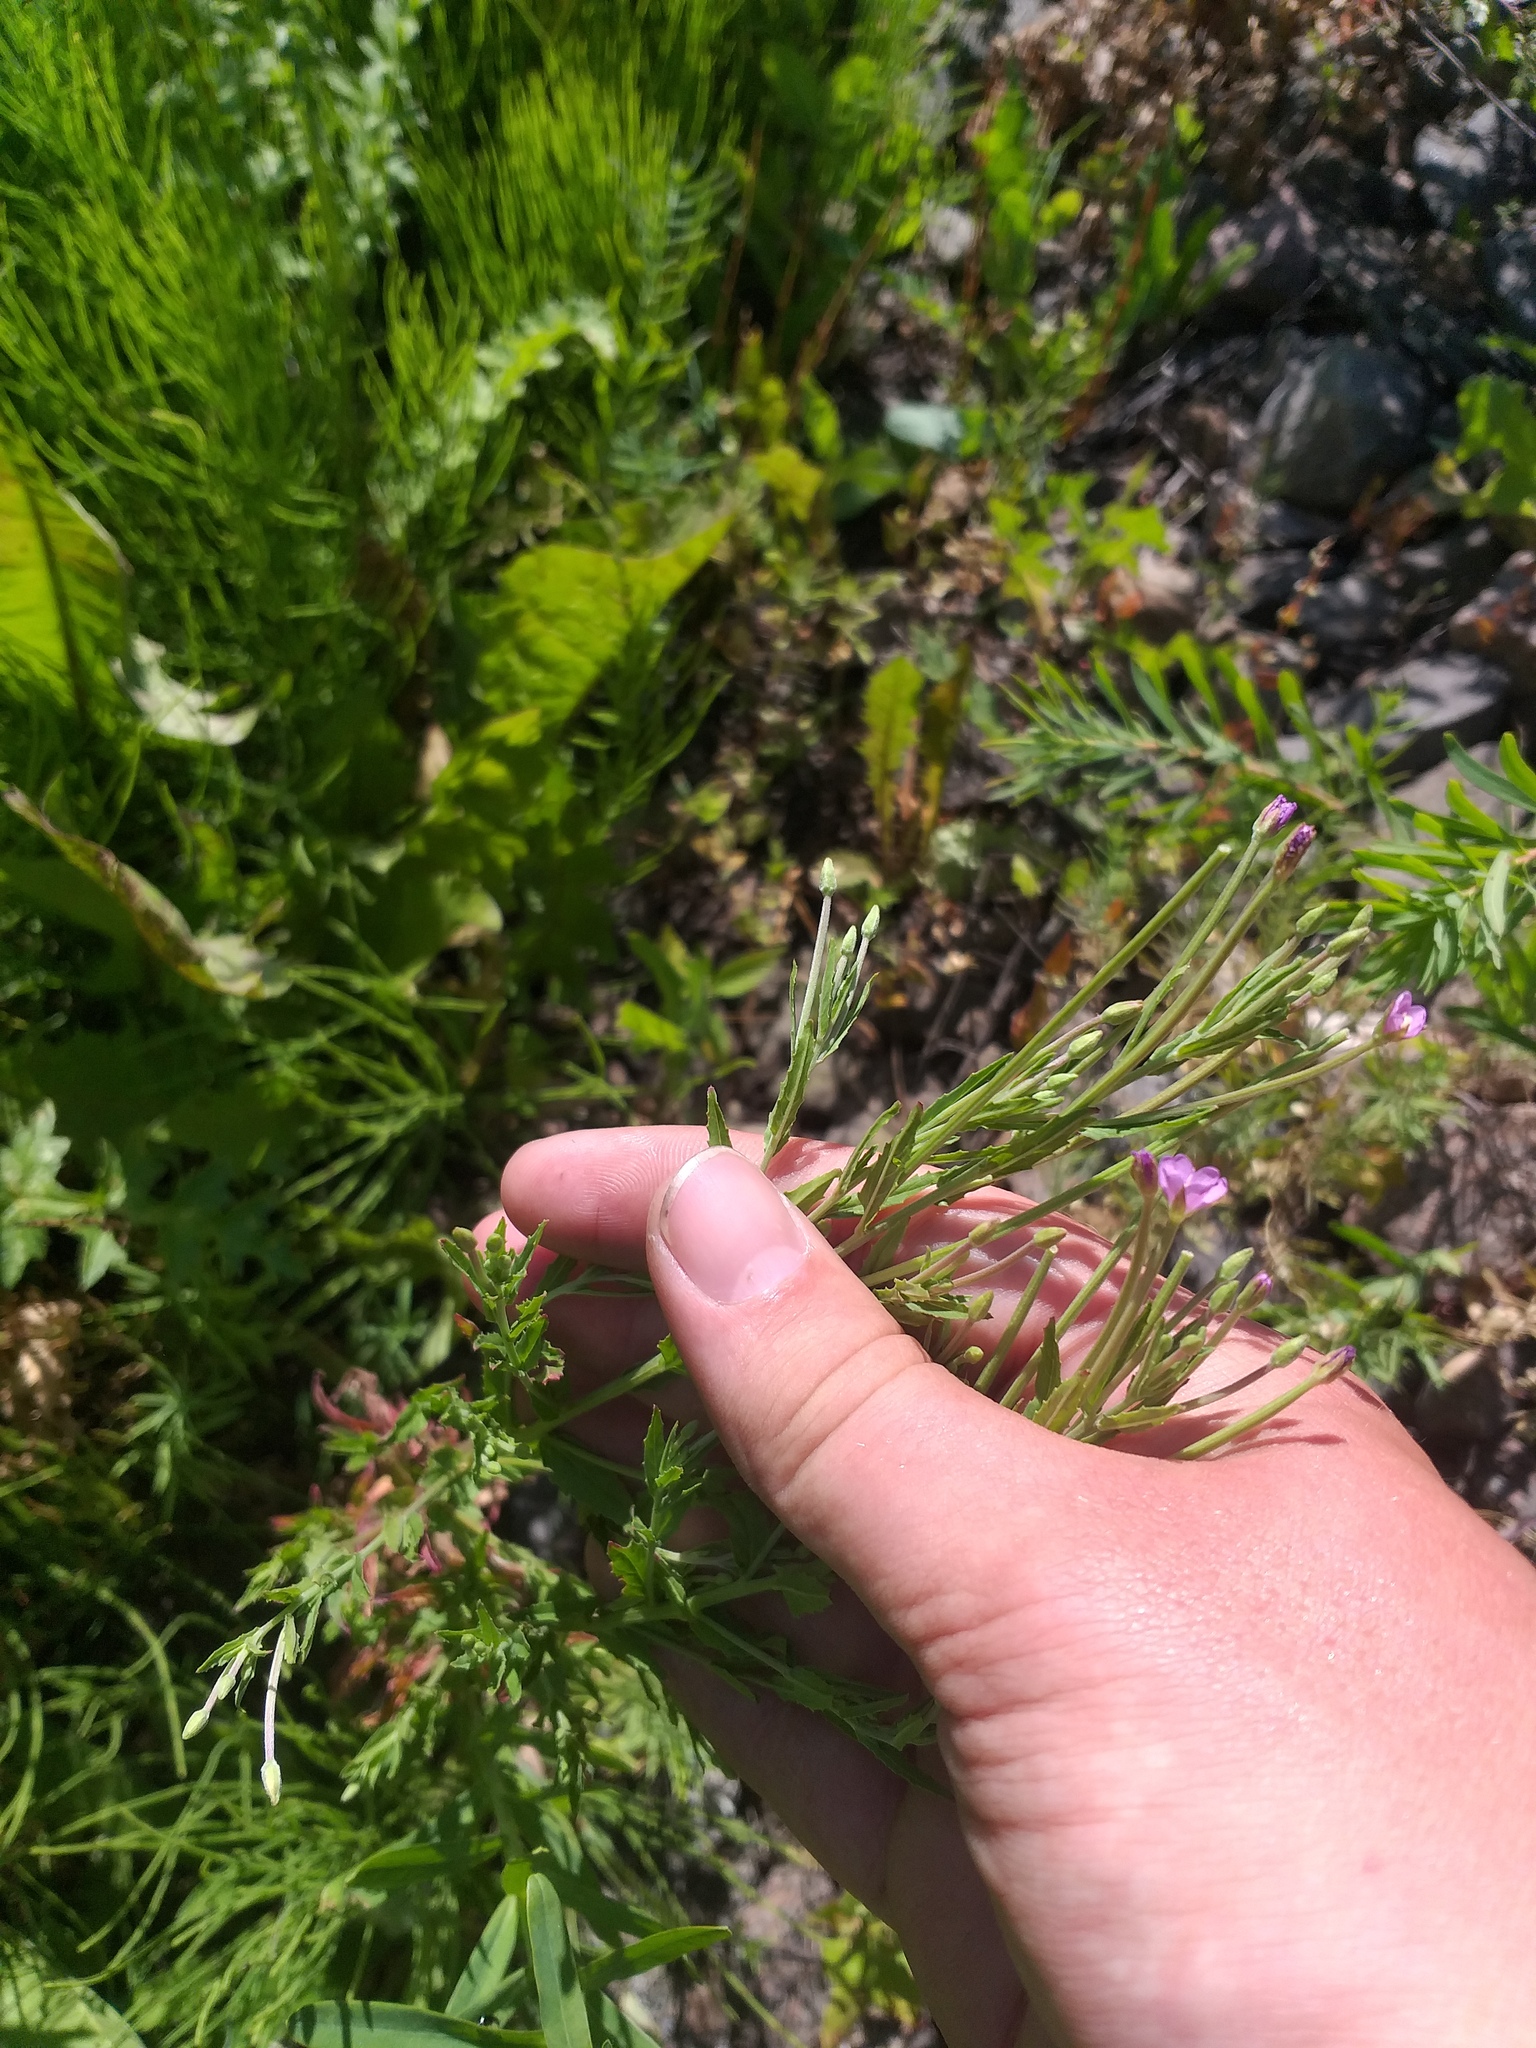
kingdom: Plantae
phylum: Tracheophyta
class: Magnoliopsida
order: Myrtales
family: Onagraceae
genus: Epilobium
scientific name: Epilobium tetragonum
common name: Square-stemmed willowherb
